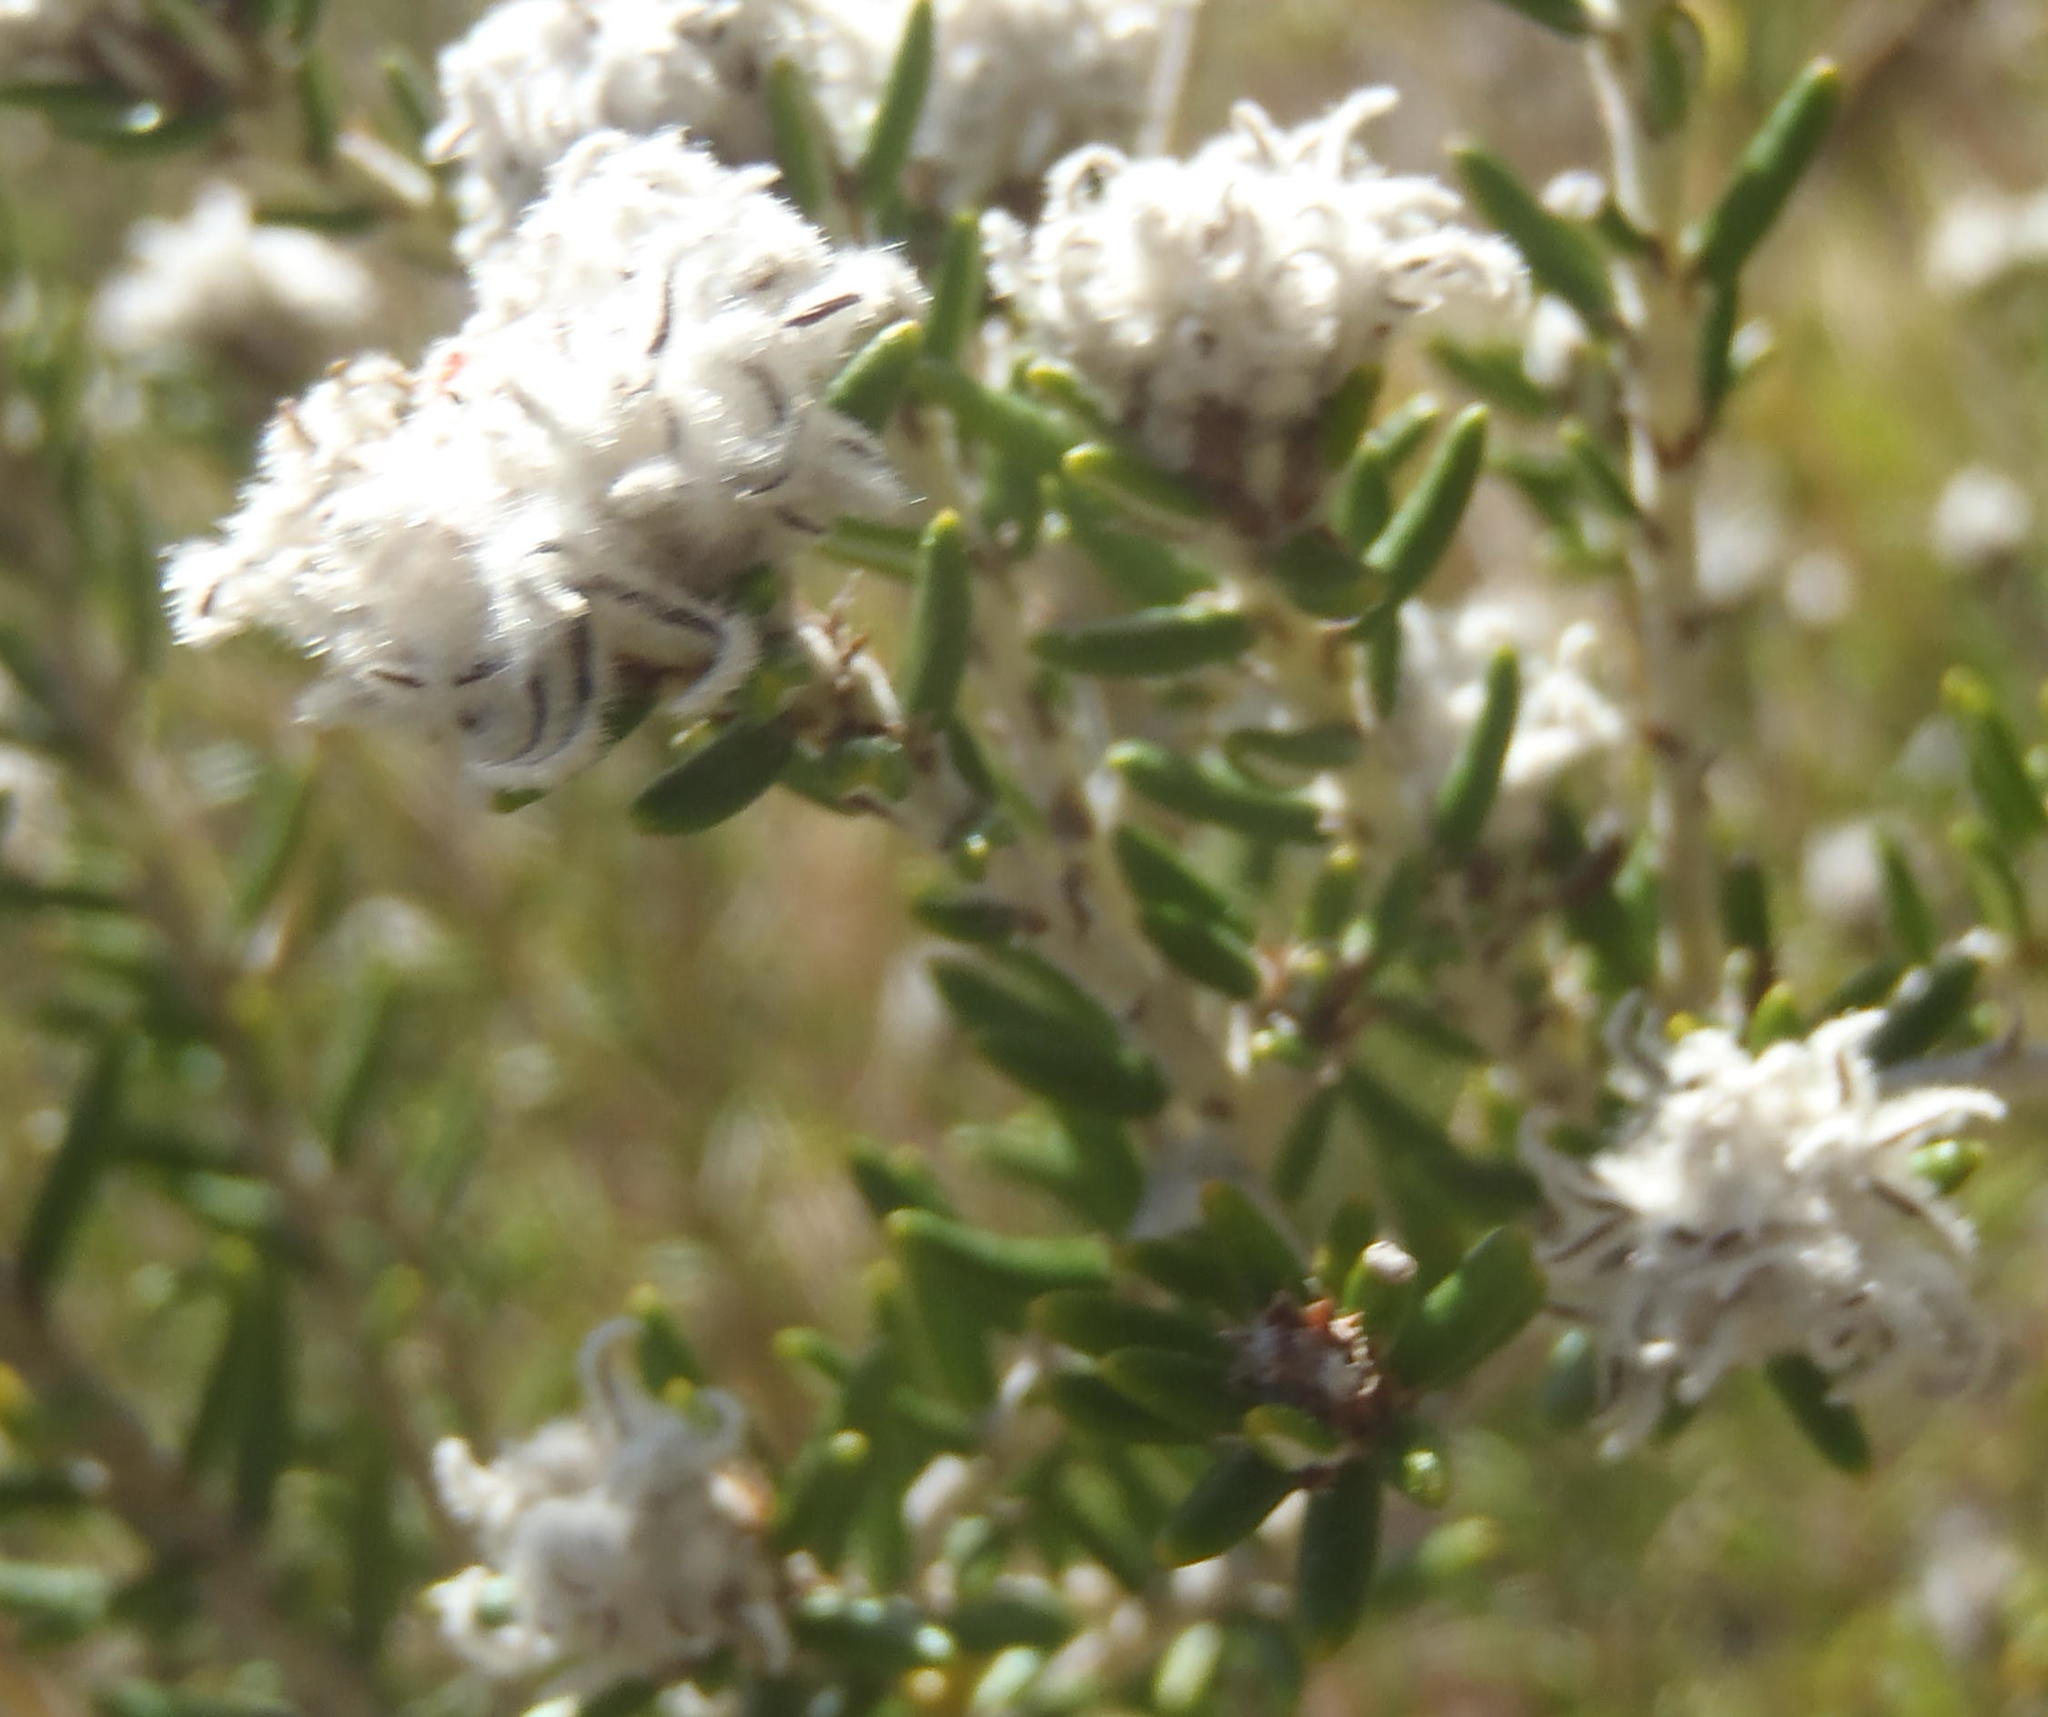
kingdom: Plantae
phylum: Tracheophyta
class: Magnoliopsida
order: Rosales
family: Rhamnaceae
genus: Trichocephalus
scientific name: Trichocephalus stipularis
